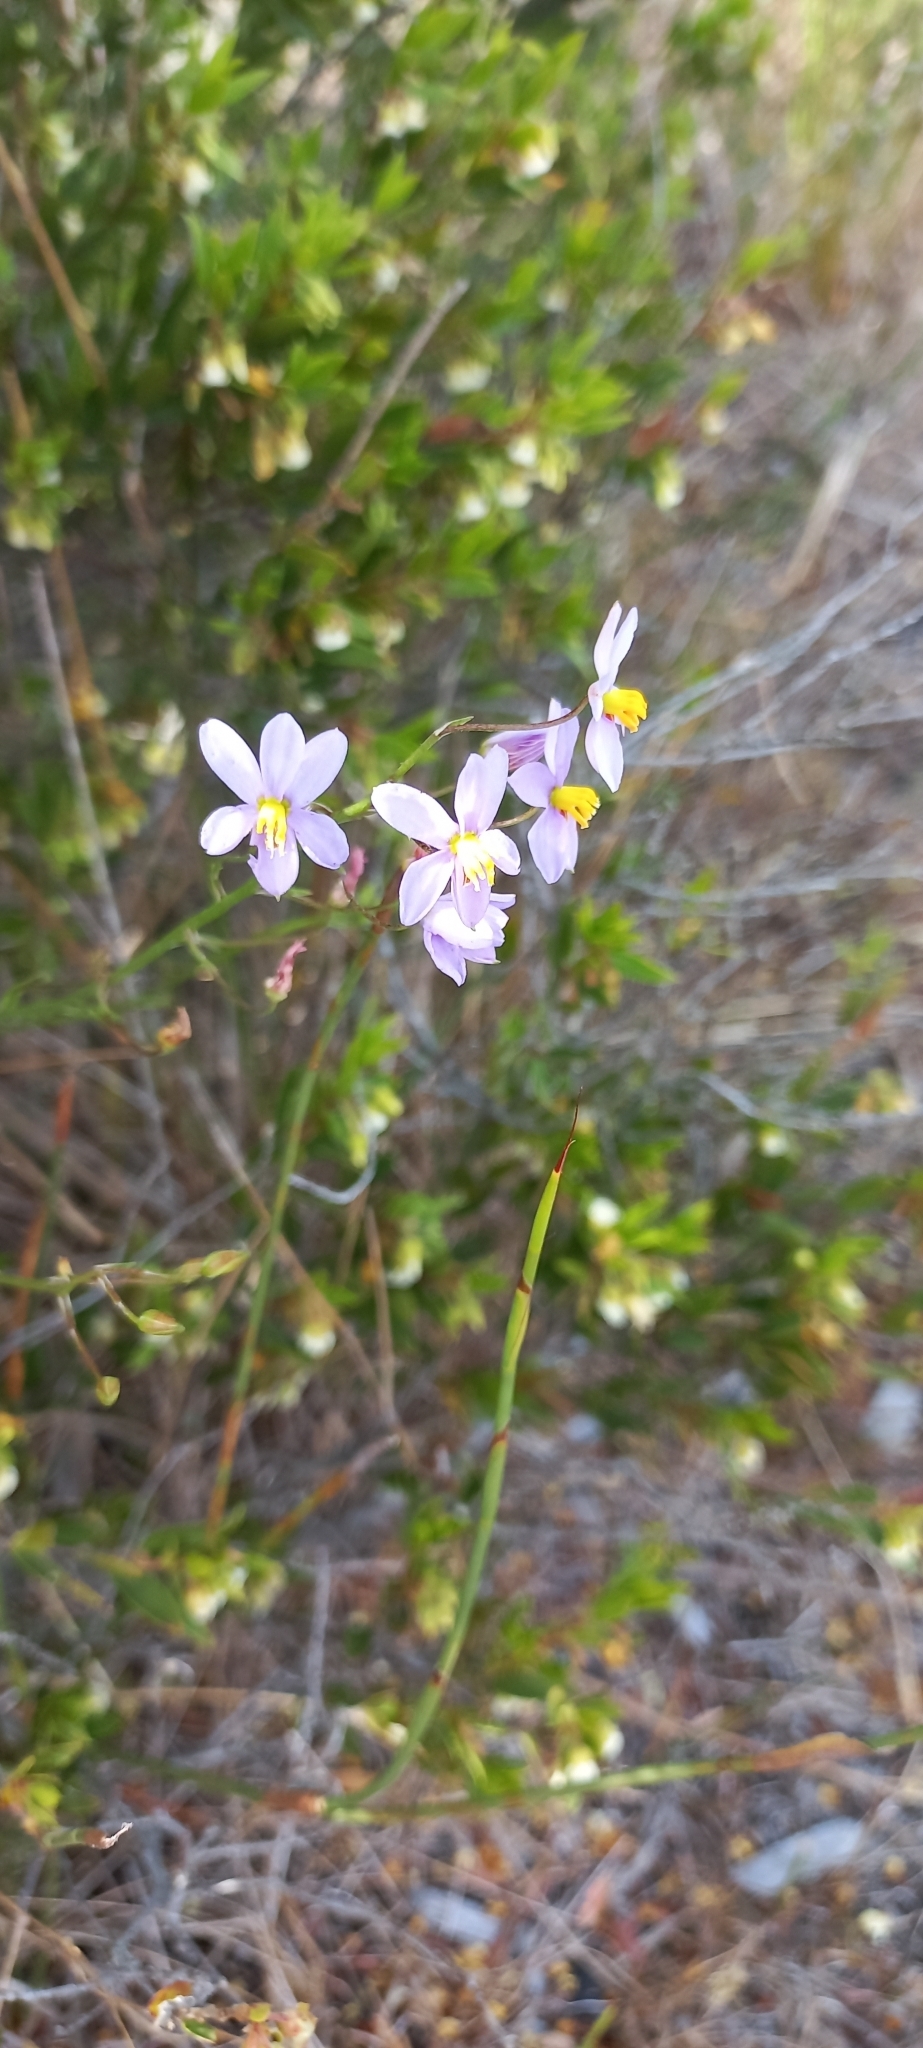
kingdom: Plantae
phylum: Tracheophyta
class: Liliopsida
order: Asparagales
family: Tecophilaeaceae
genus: Cyanella
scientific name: Cyanella hyacinthoides
